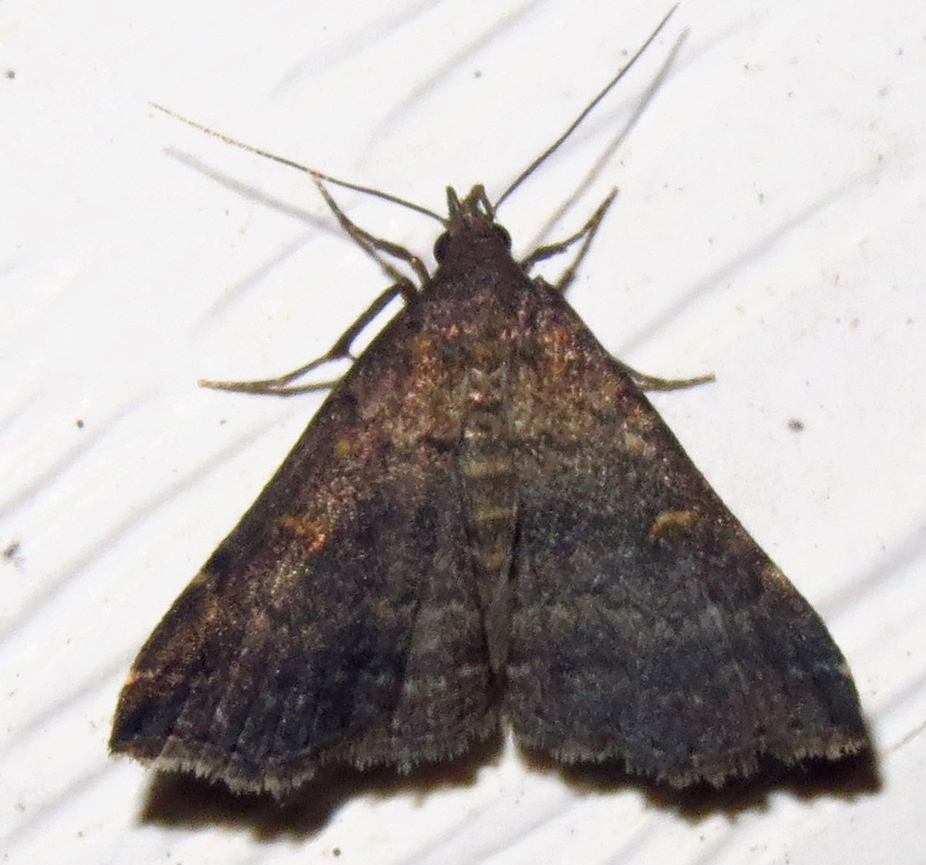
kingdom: Animalia
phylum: Arthropoda
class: Insecta
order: Lepidoptera
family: Erebidae
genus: Tetanolita
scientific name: Tetanolita mynesalis
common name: Smoky tetanolita moth
